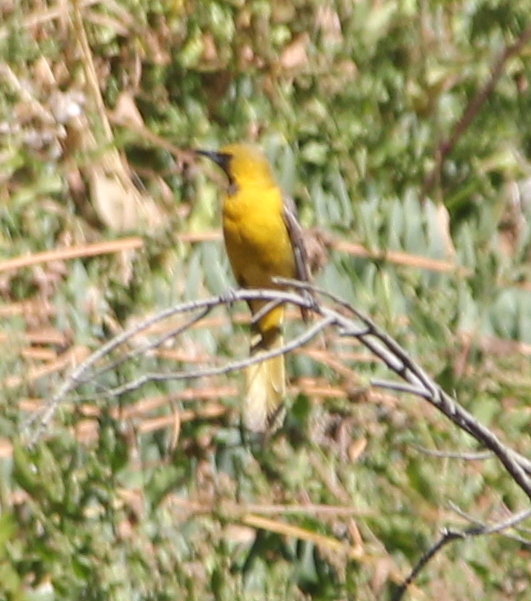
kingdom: Animalia
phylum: Chordata
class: Aves
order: Passeriformes
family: Icteridae
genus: Icterus
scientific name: Icterus cucullatus
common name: Hooded oriole
